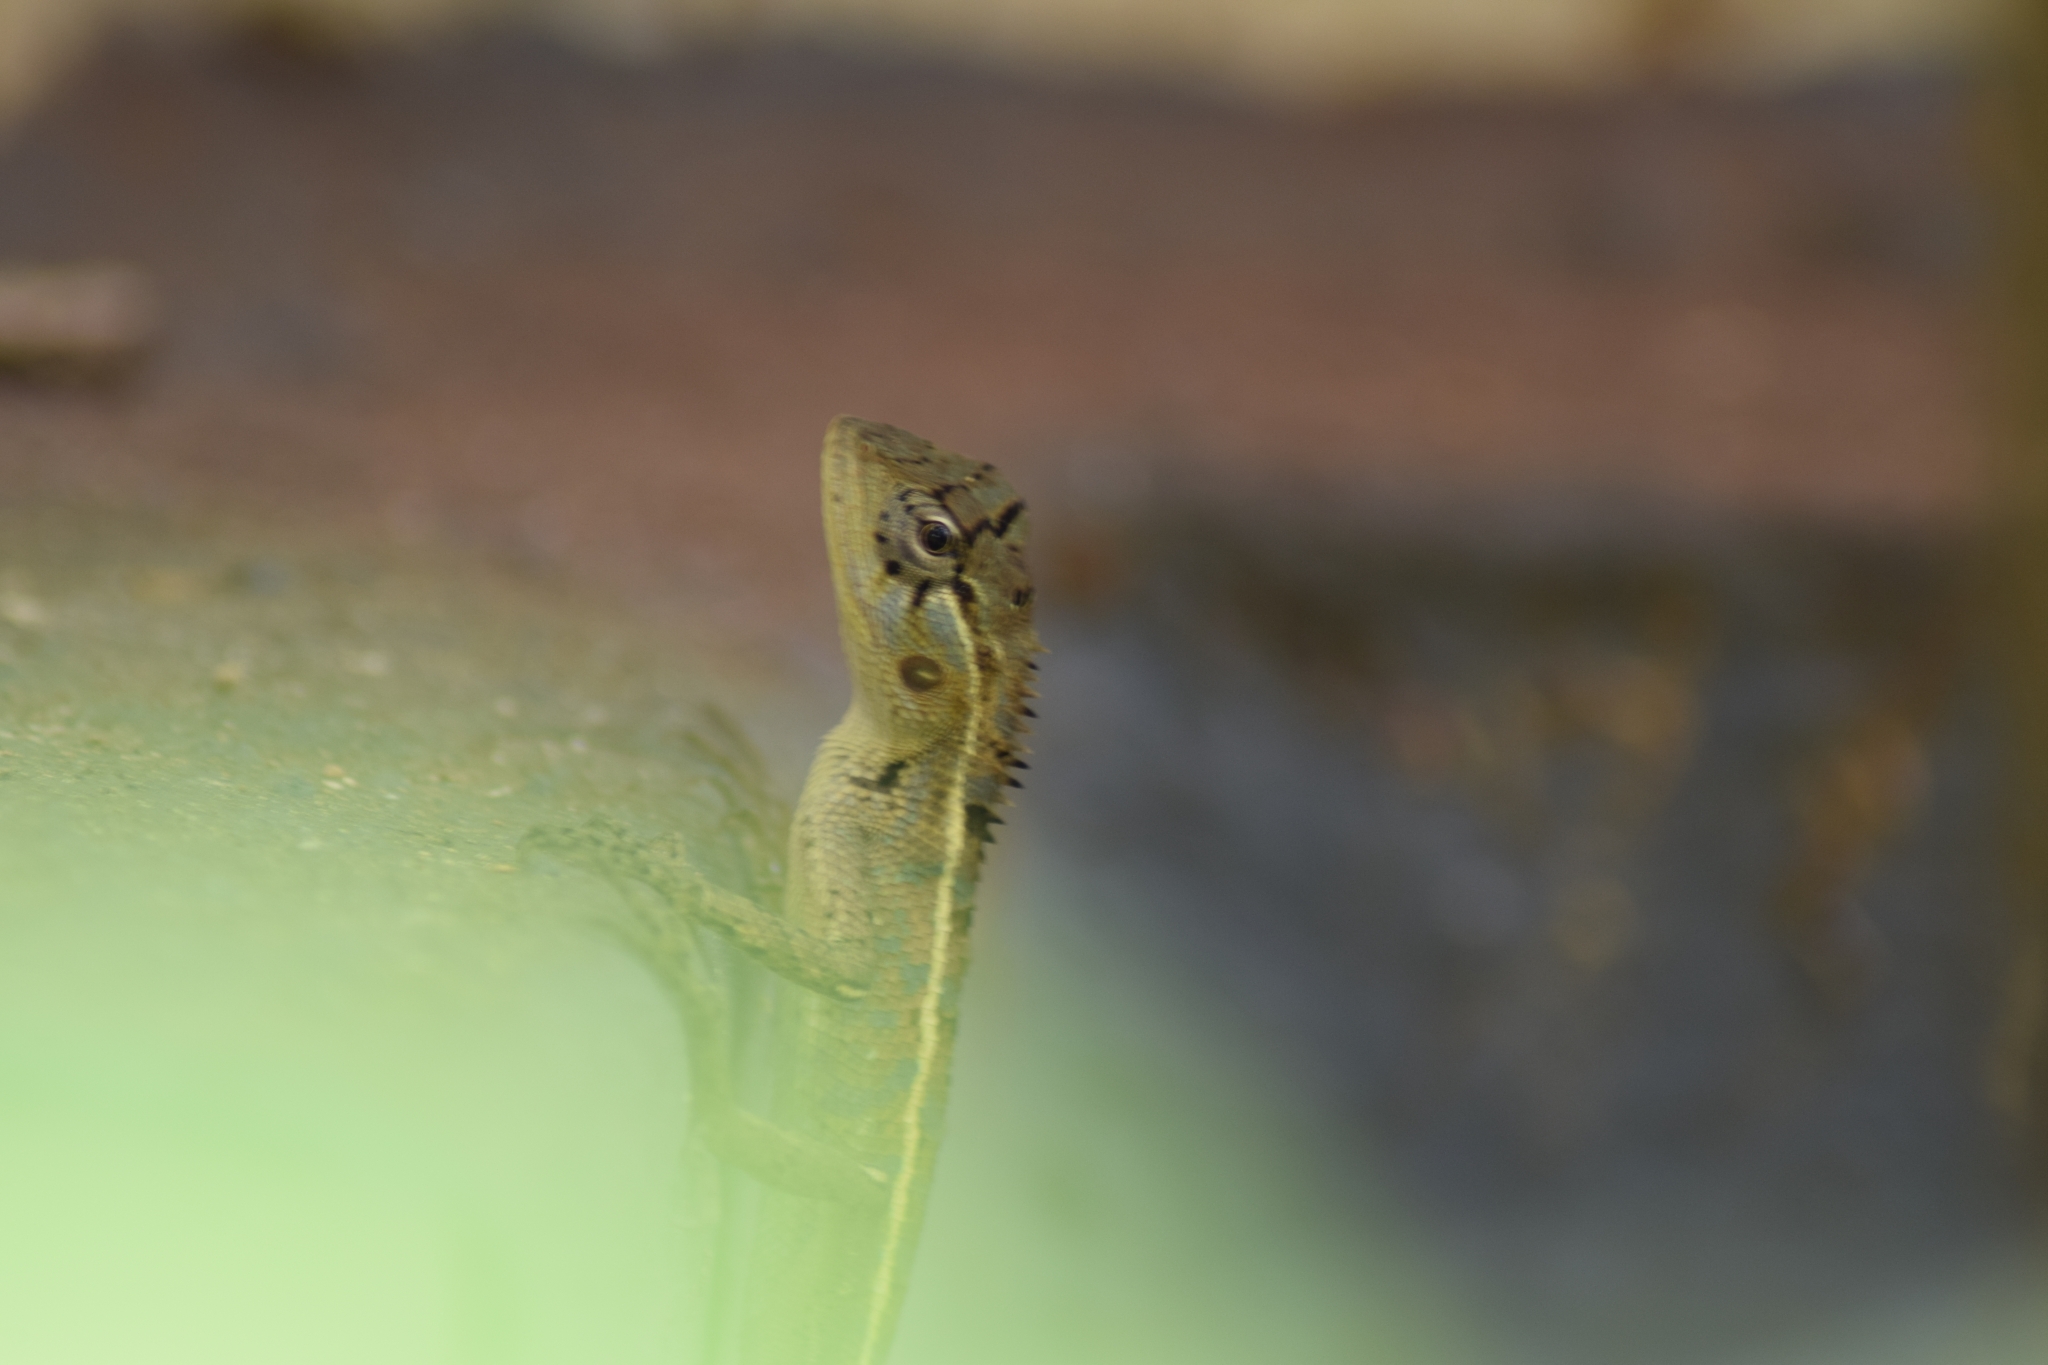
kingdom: Animalia
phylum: Chordata
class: Squamata
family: Agamidae
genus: Calotes
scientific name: Calotes versicolor
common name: Oriental garden lizard
